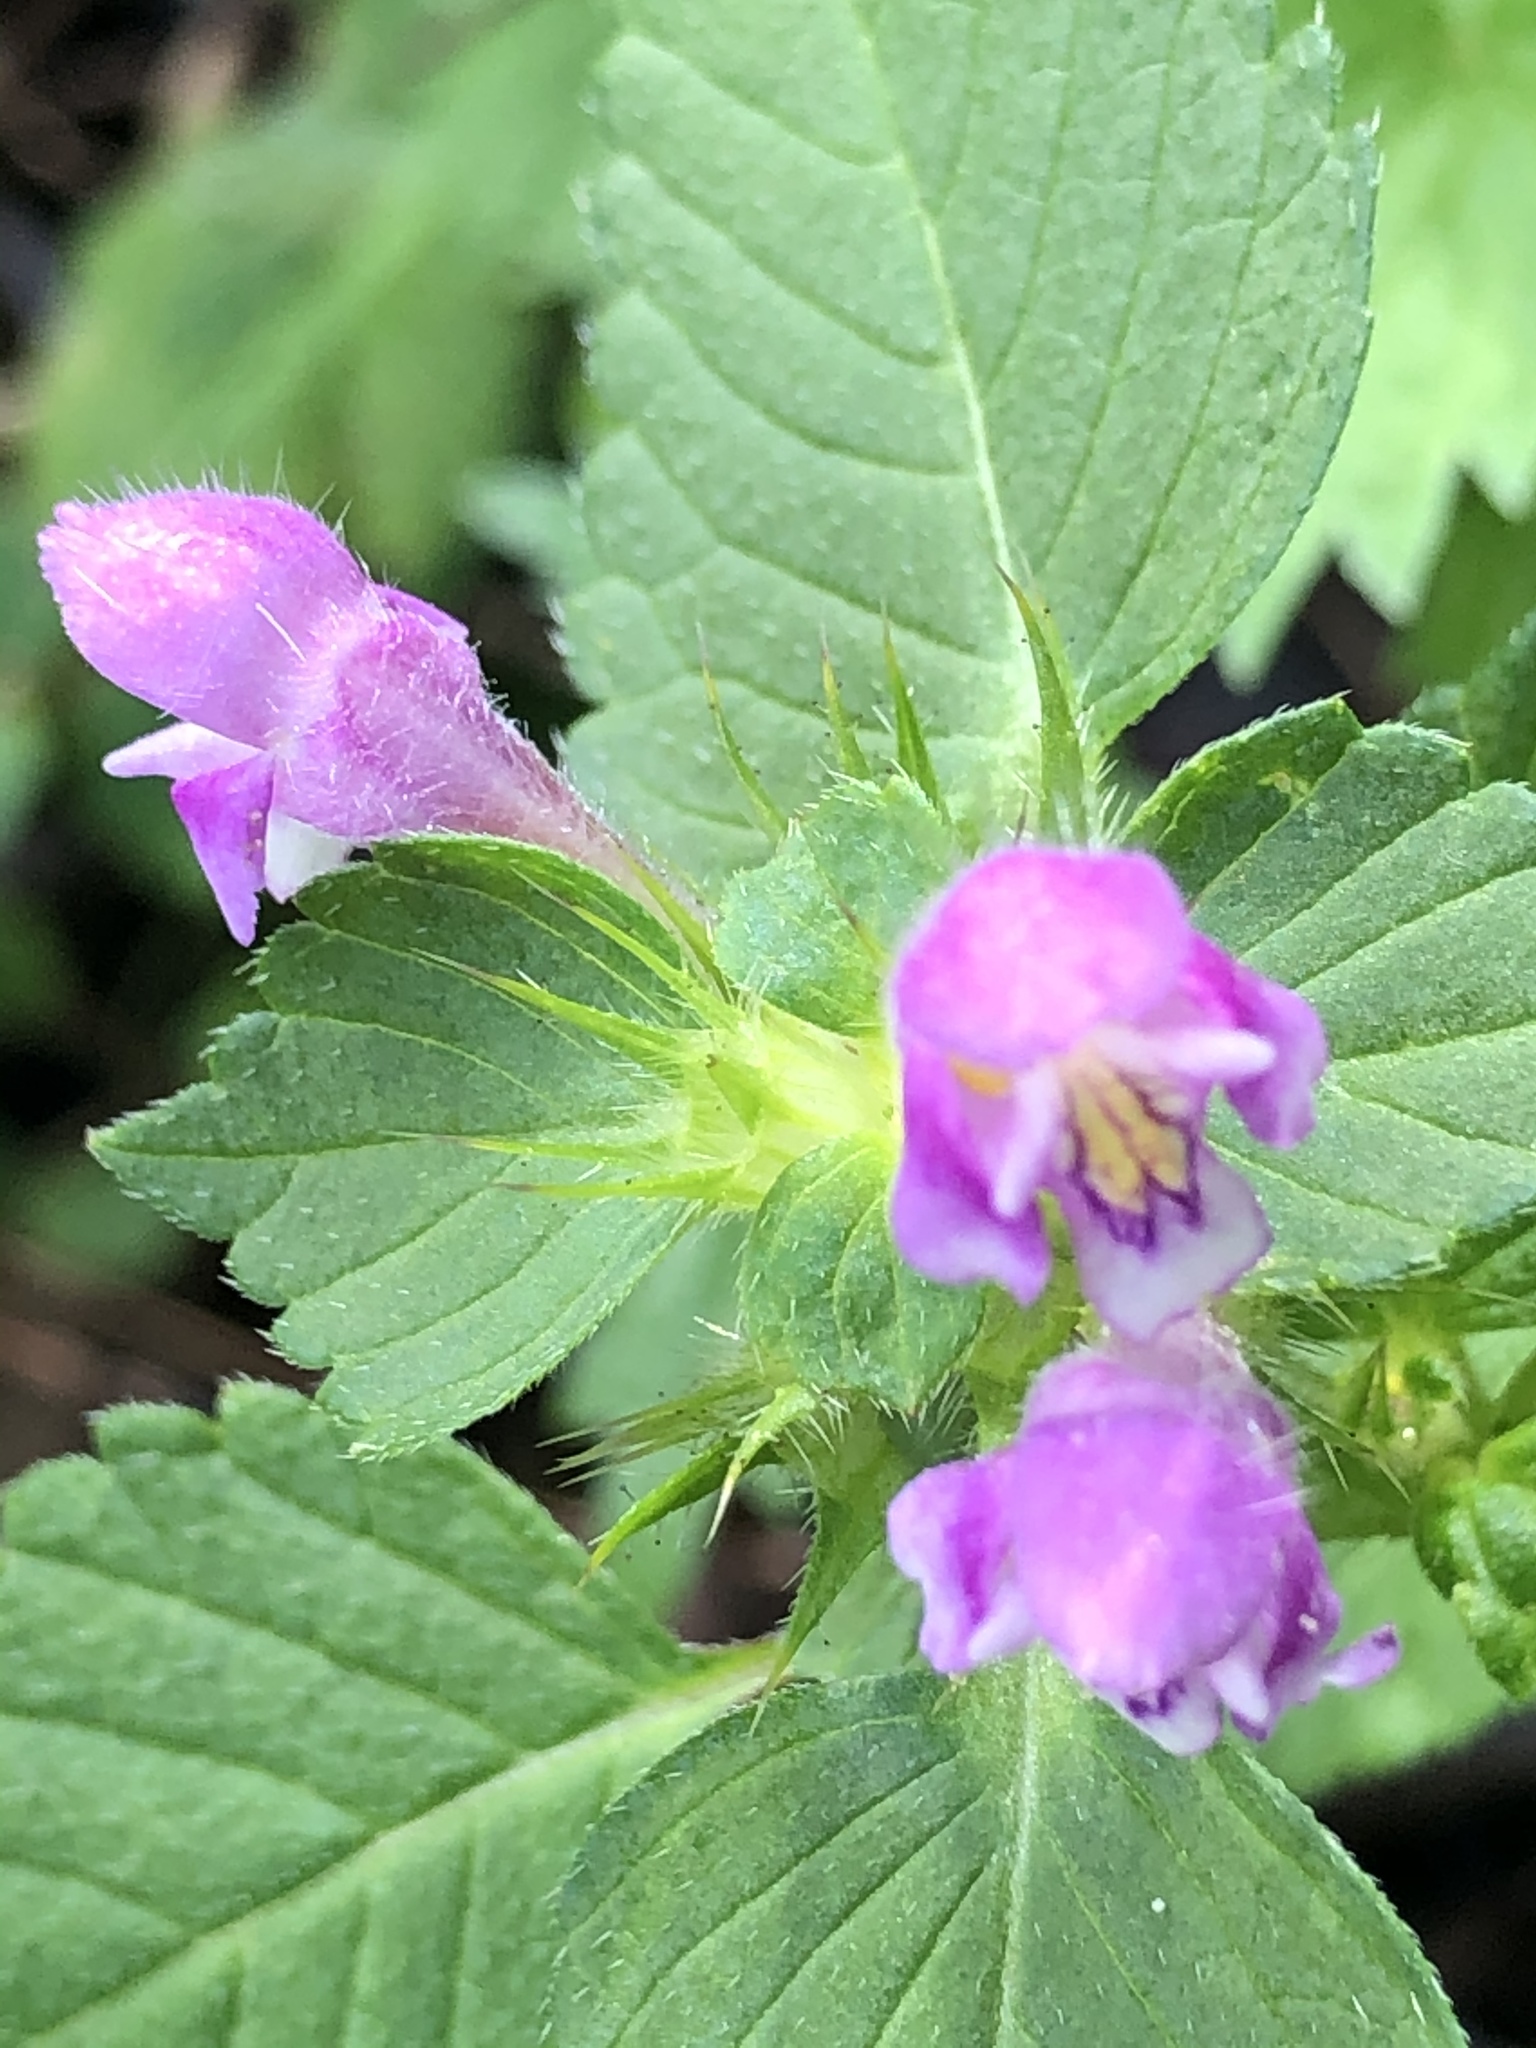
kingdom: Plantae
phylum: Tracheophyta
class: Magnoliopsida
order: Lamiales
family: Lamiaceae
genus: Galeopsis
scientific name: Galeopsis tetrahit
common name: Common hemp-nettle
